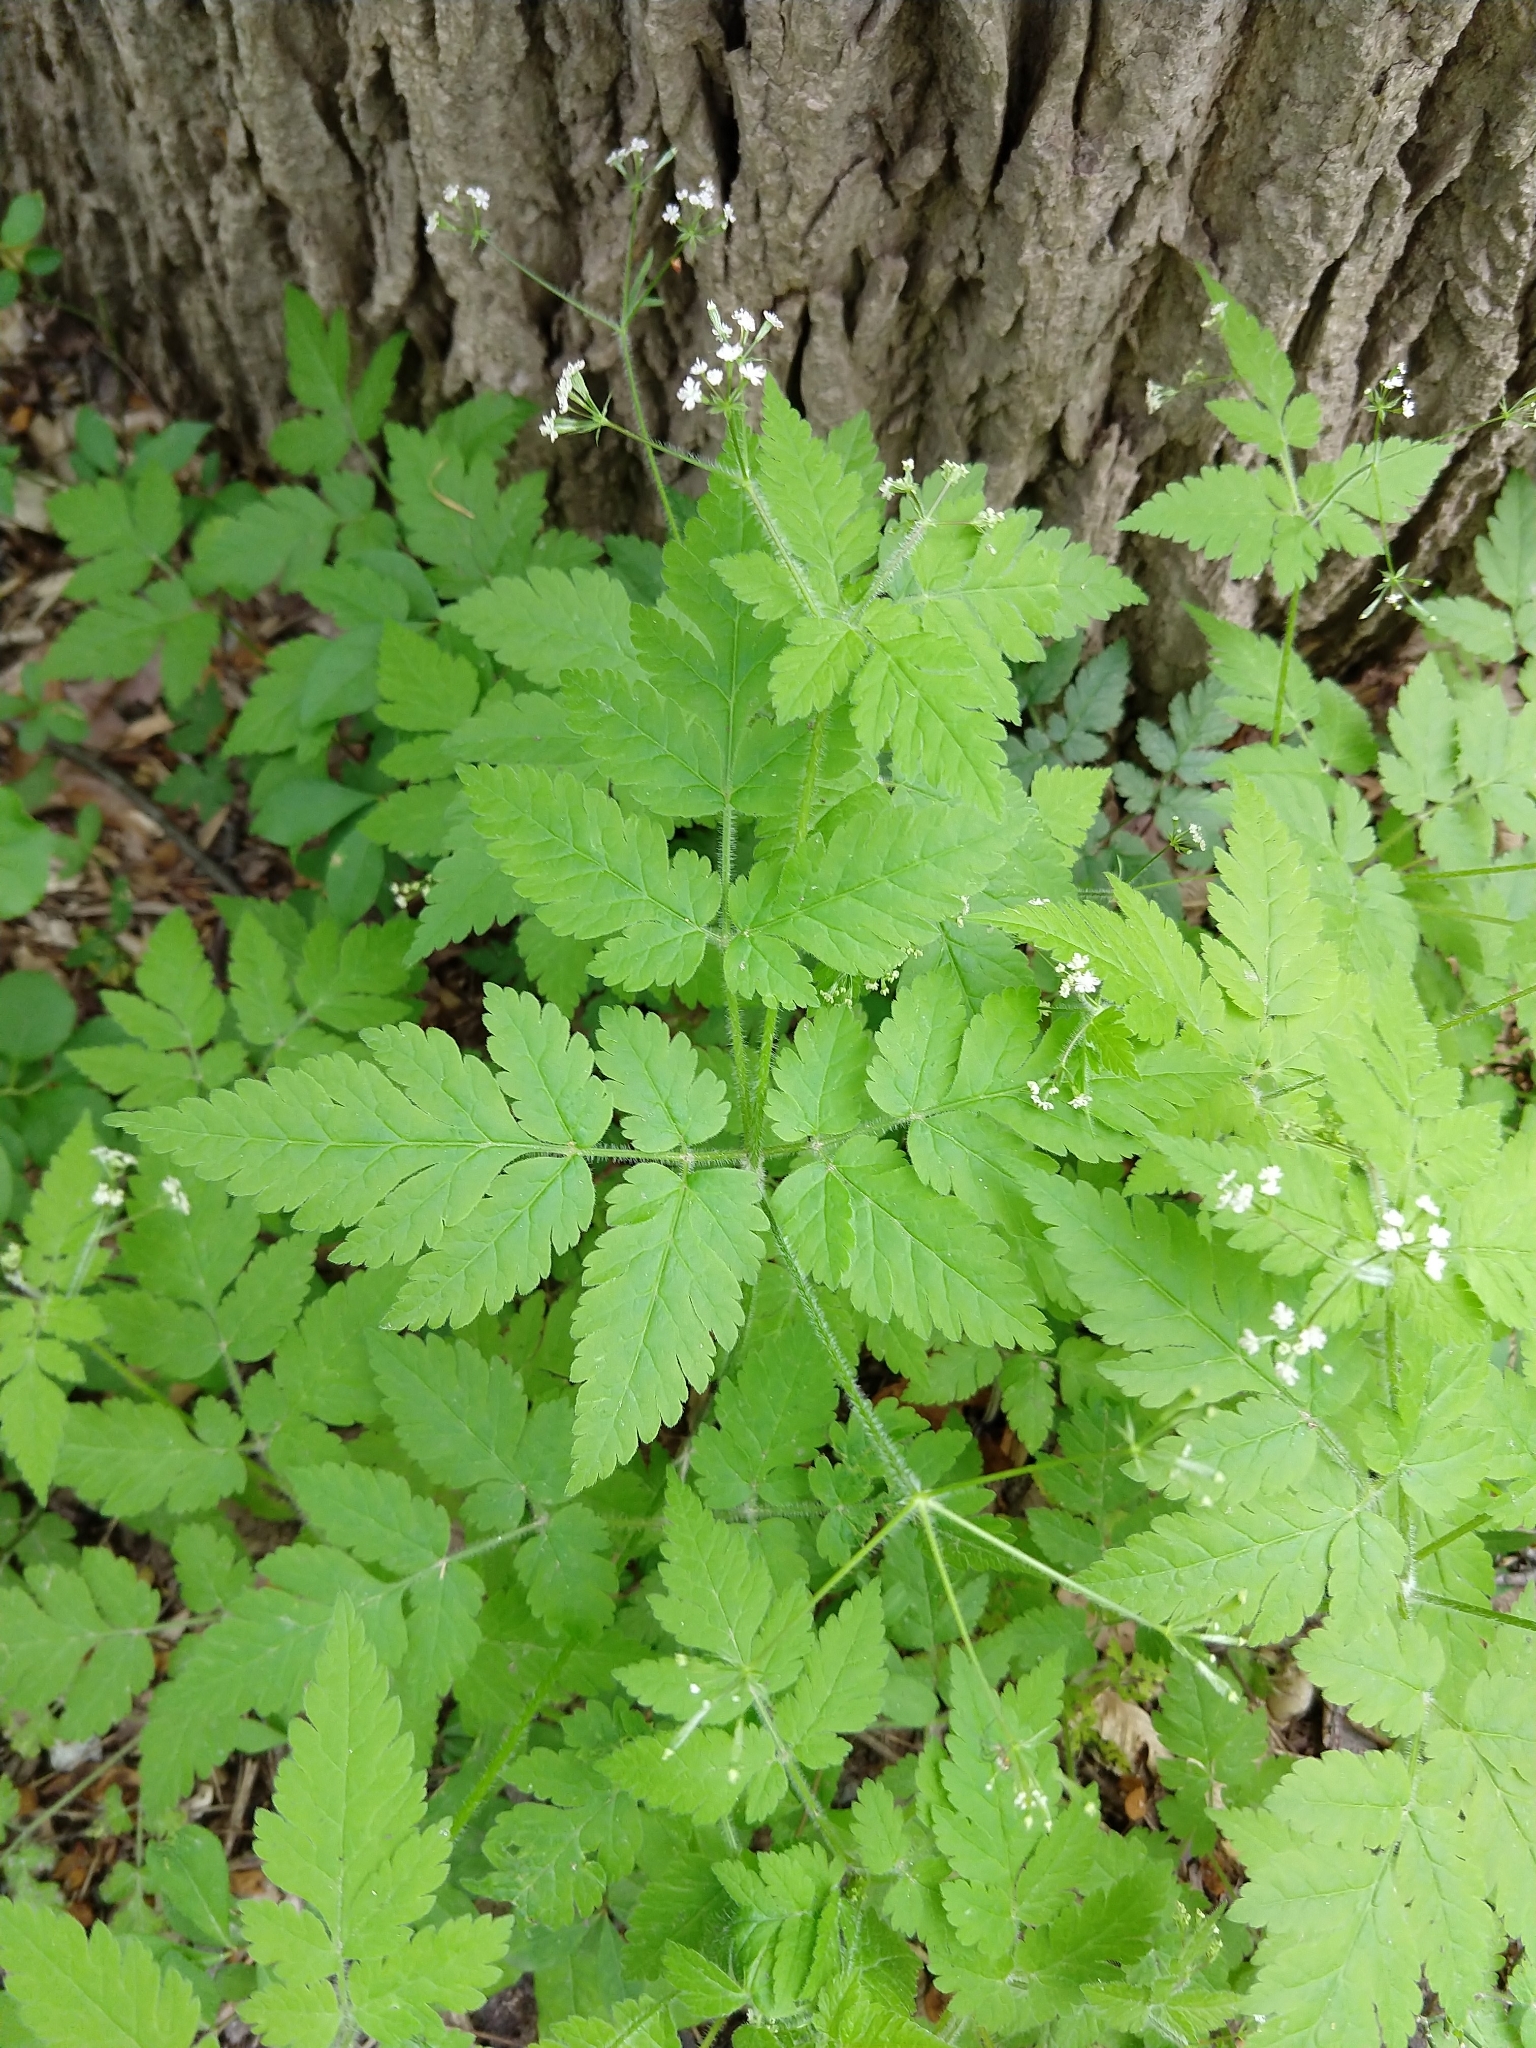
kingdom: Plantae
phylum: Tracheophyta
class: Magnoliopsida
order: Apiales
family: Apiaceae
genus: Osmorhiza
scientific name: Osmorhiza claytonii
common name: Hairy sweet cicely
